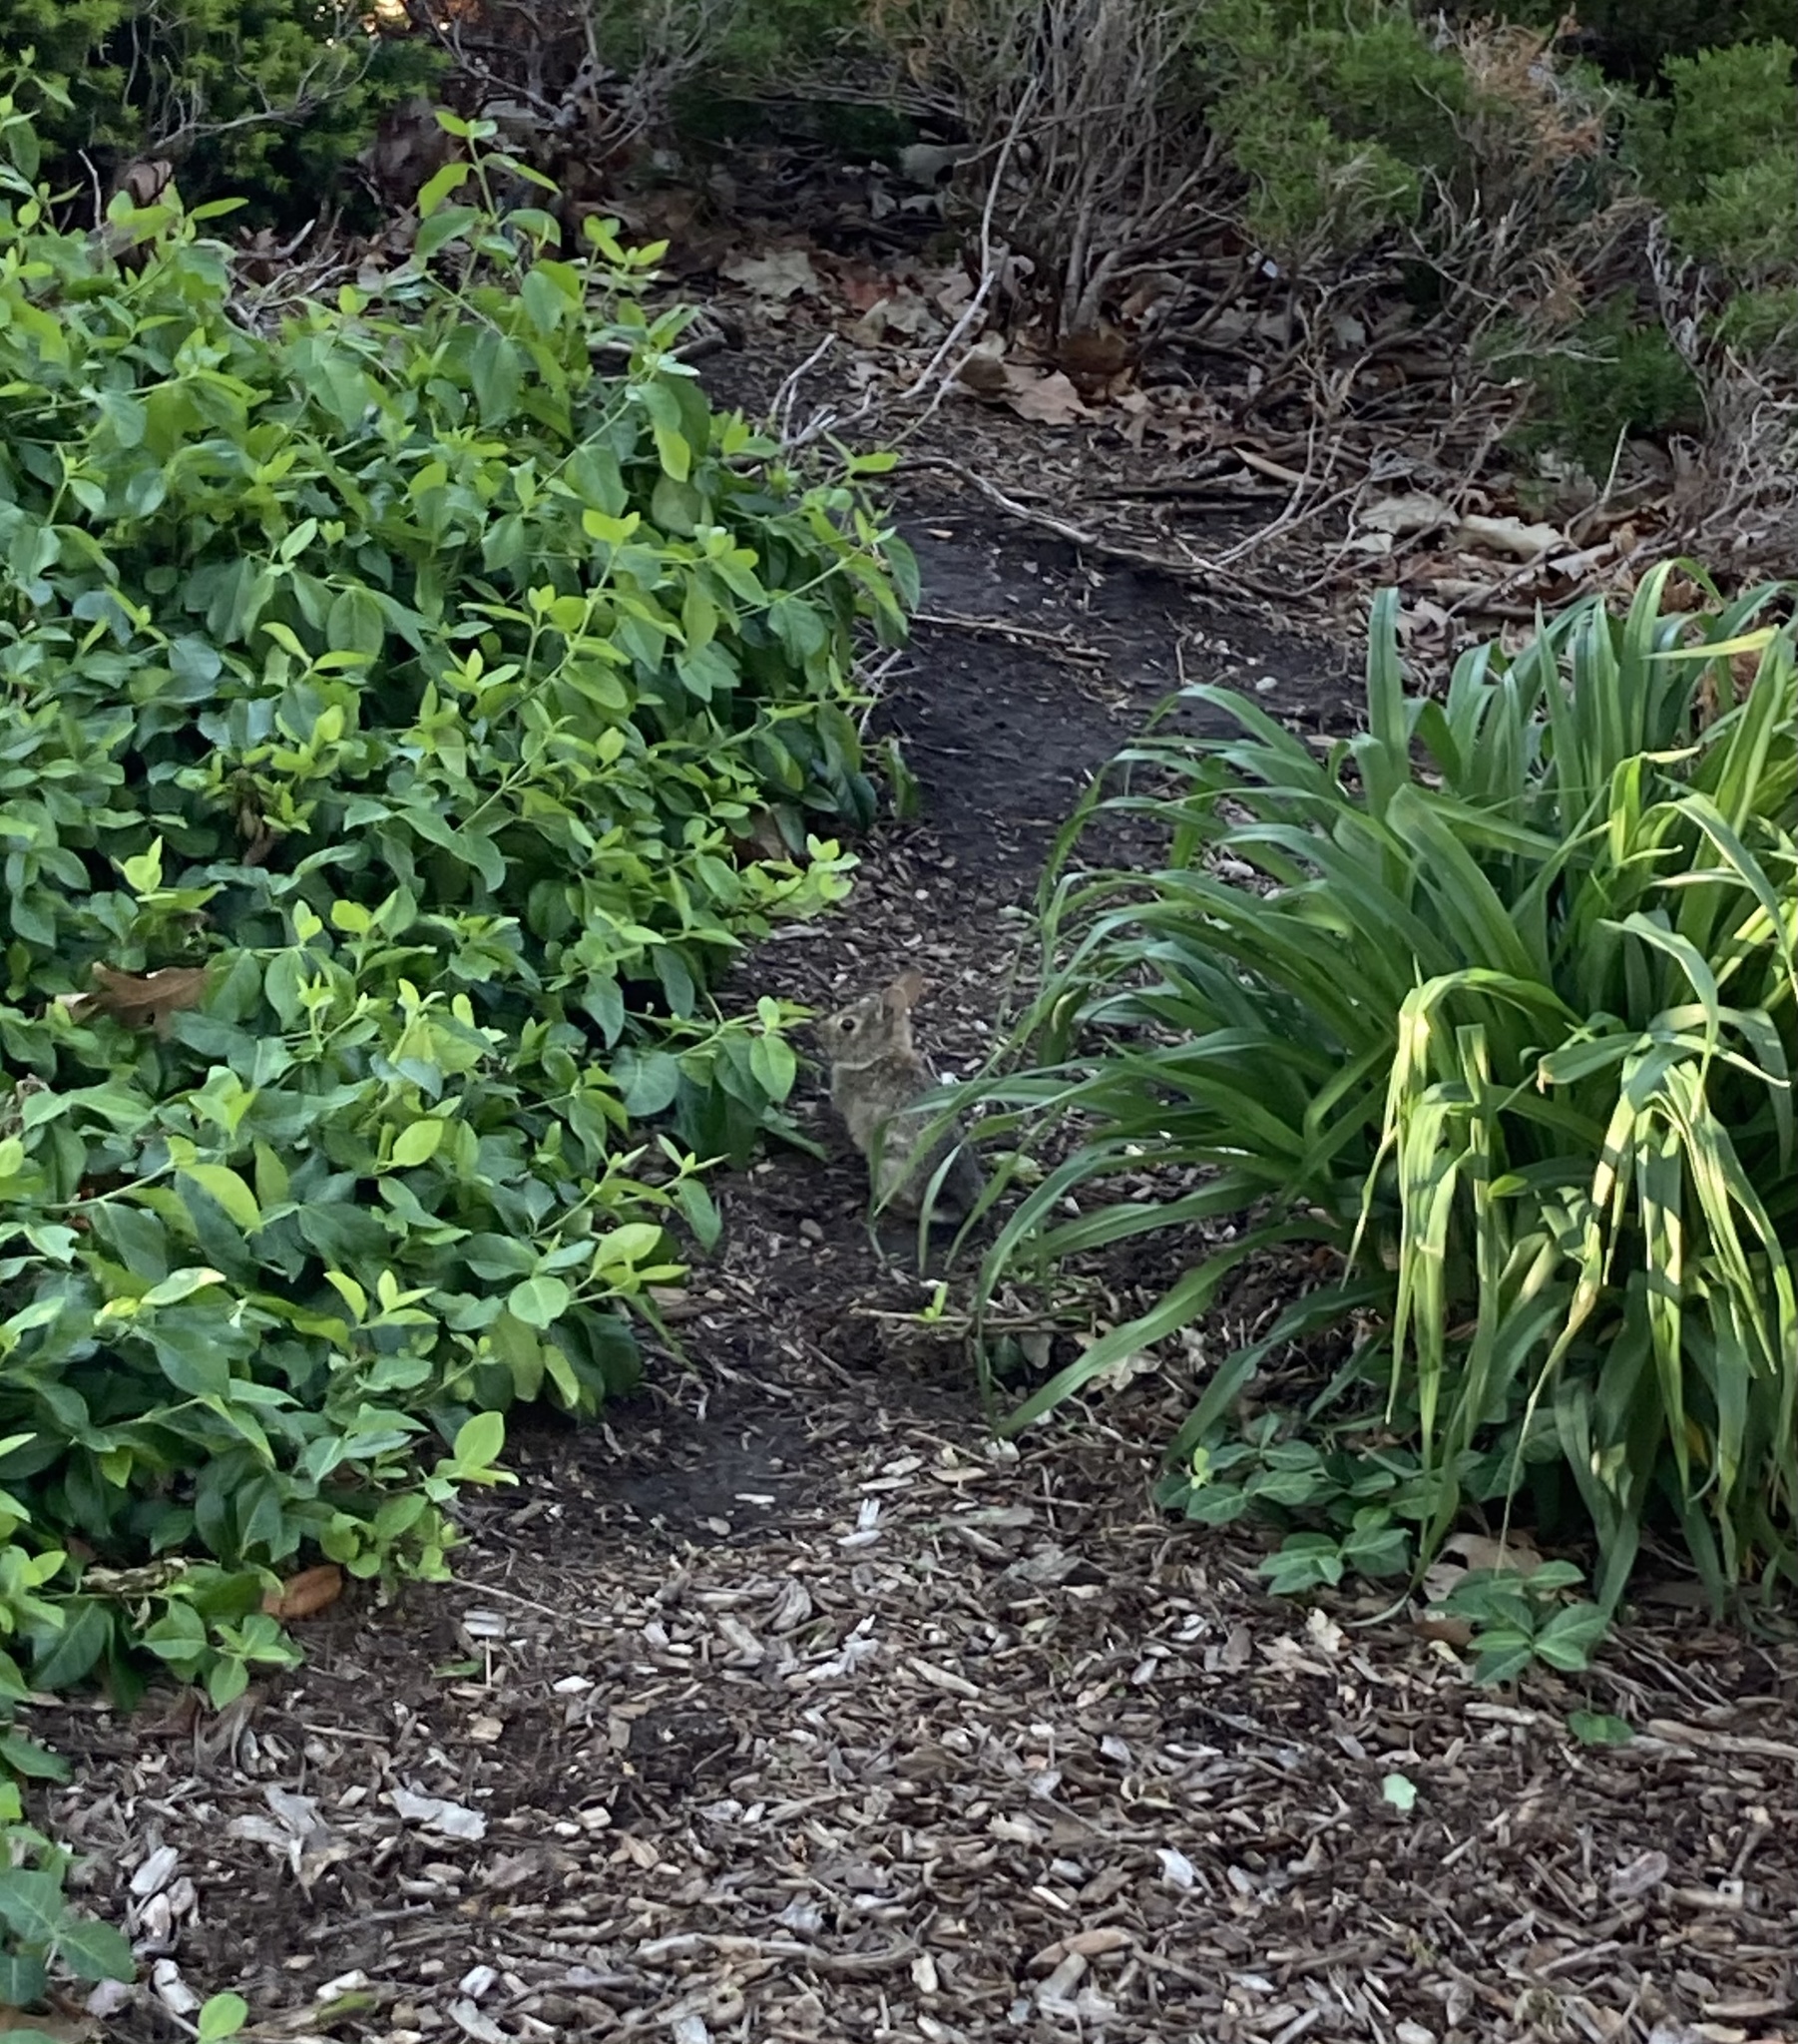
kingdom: Animalia
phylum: Chordata
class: Mammalia
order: Lagomorpha
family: Leporidae
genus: Sylvilagus
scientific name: Sylvilagus floridanus
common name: Eastern cottontail
